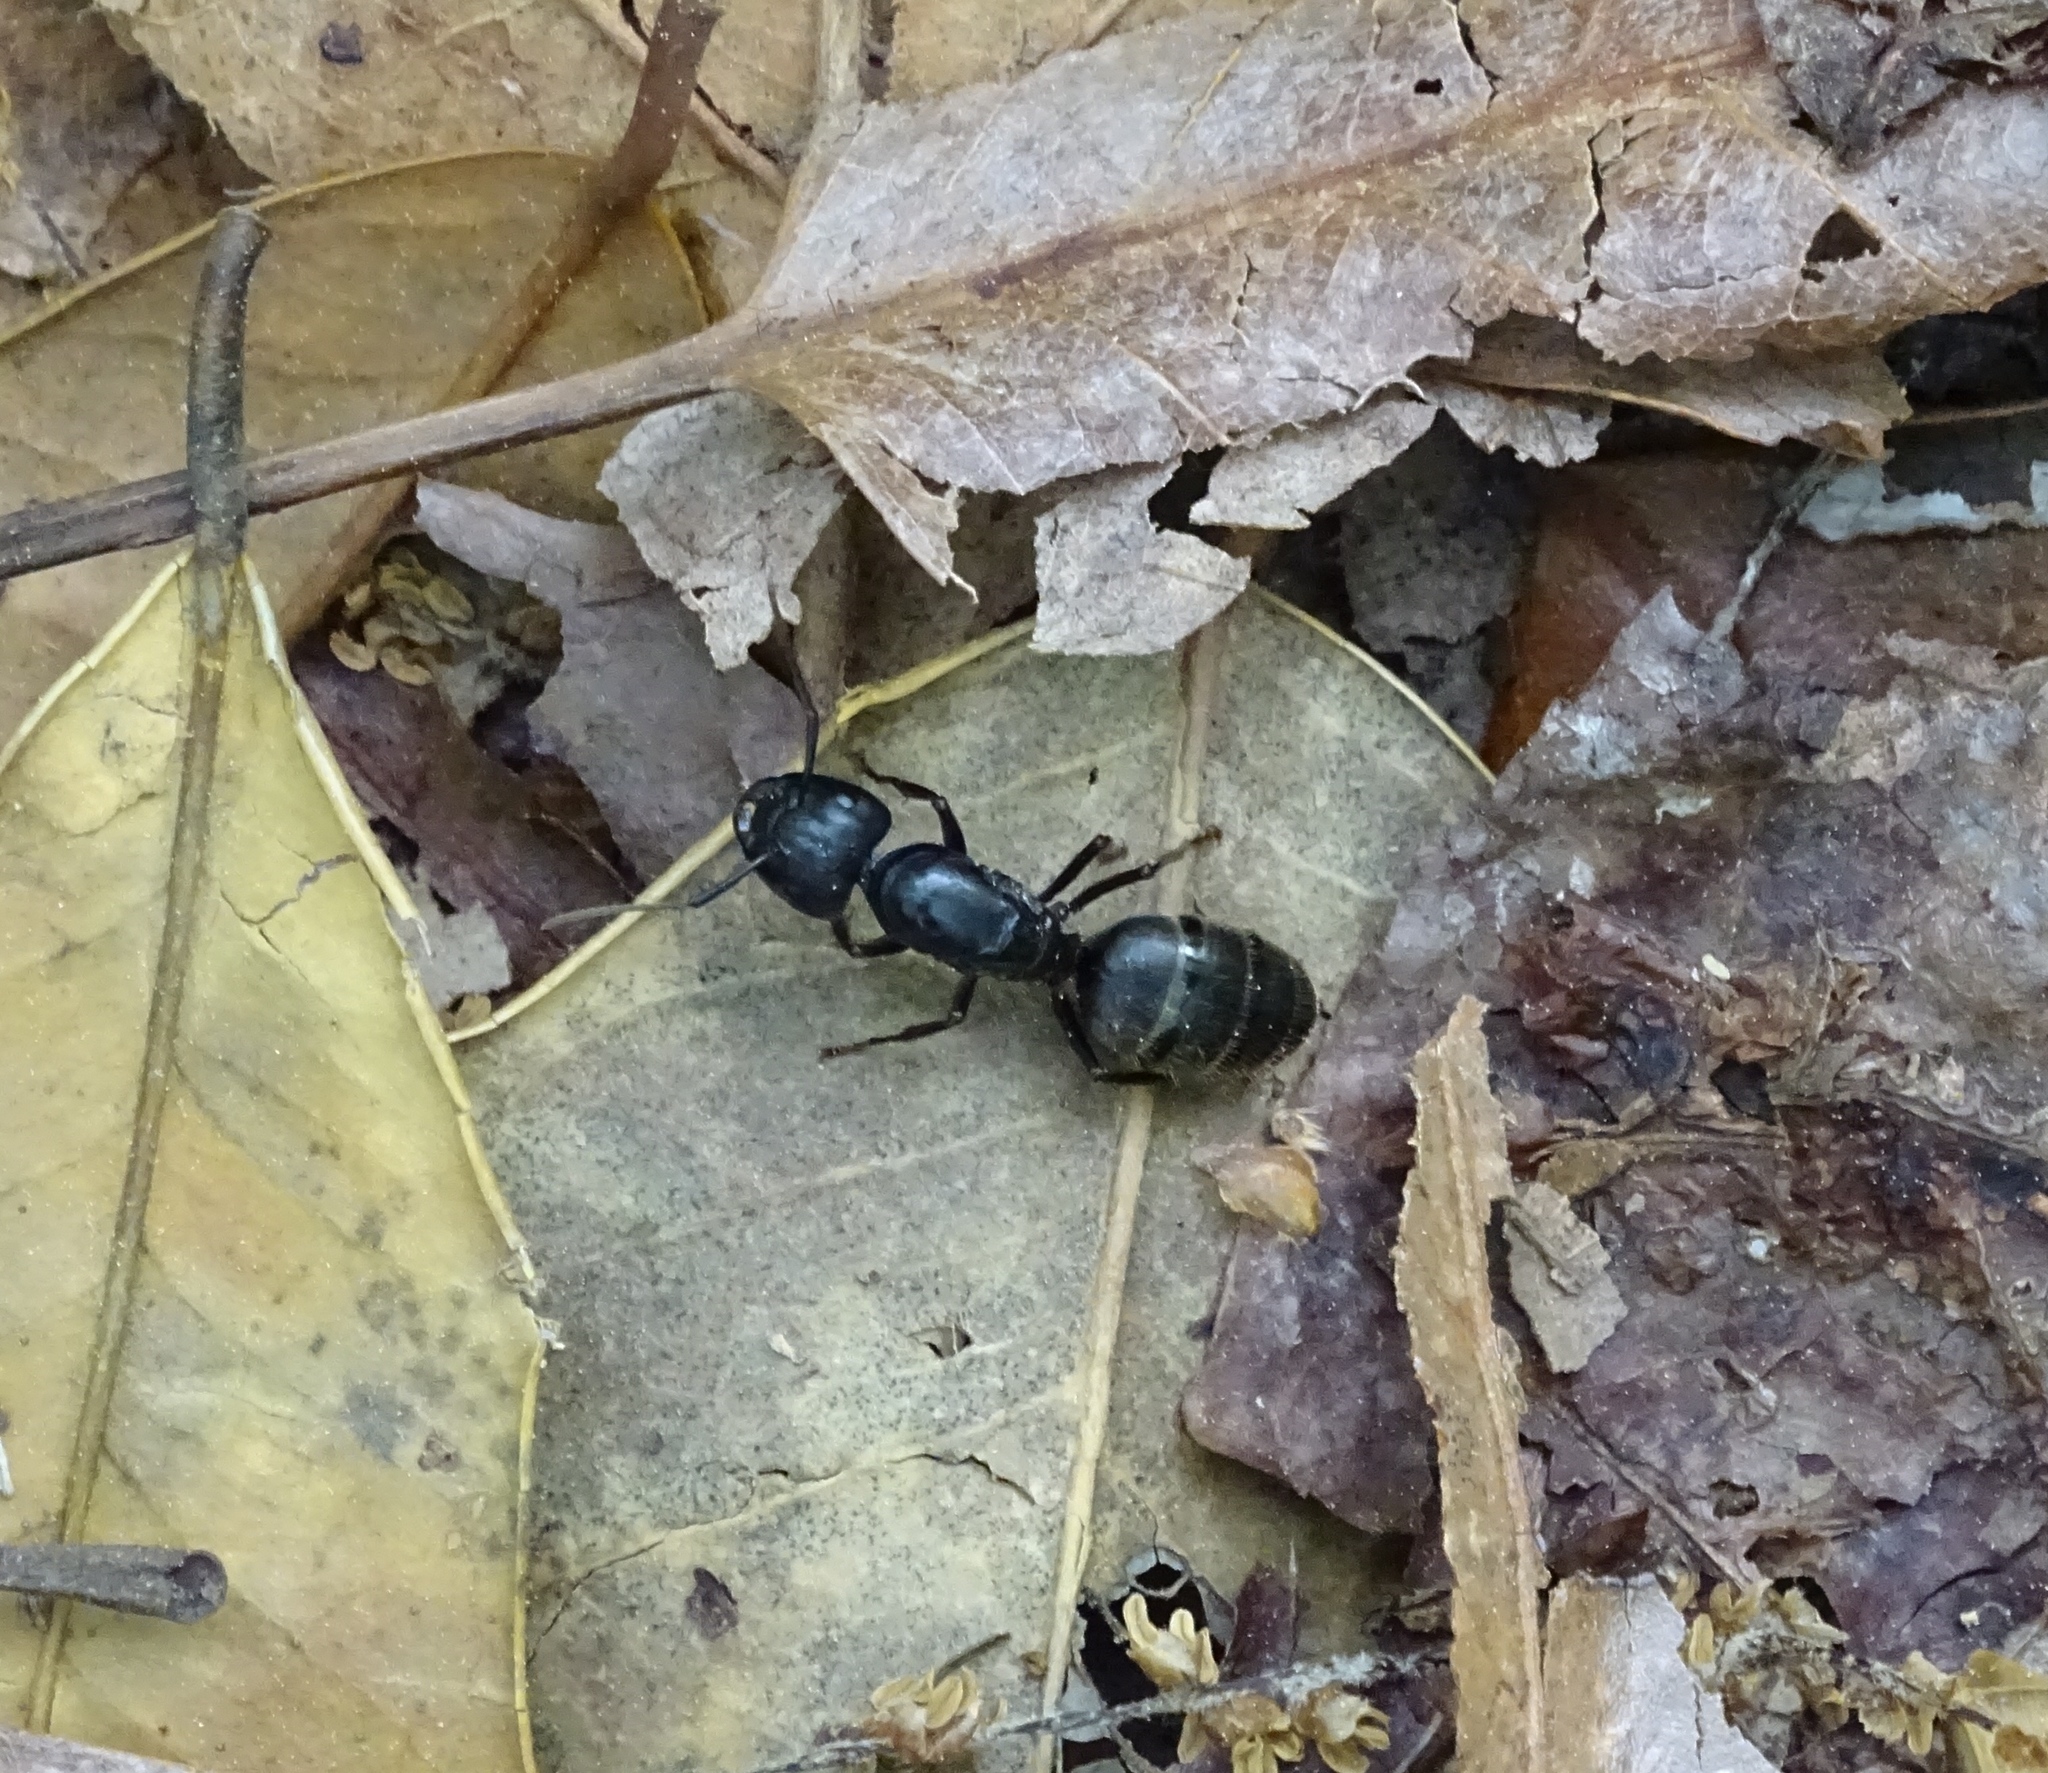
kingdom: Animalia
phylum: Arthropoda
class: Insecta
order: Hymenoptera
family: Formicidae
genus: Camponotus
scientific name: Camponotus pennsylvanicus
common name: Black carpenter ant
